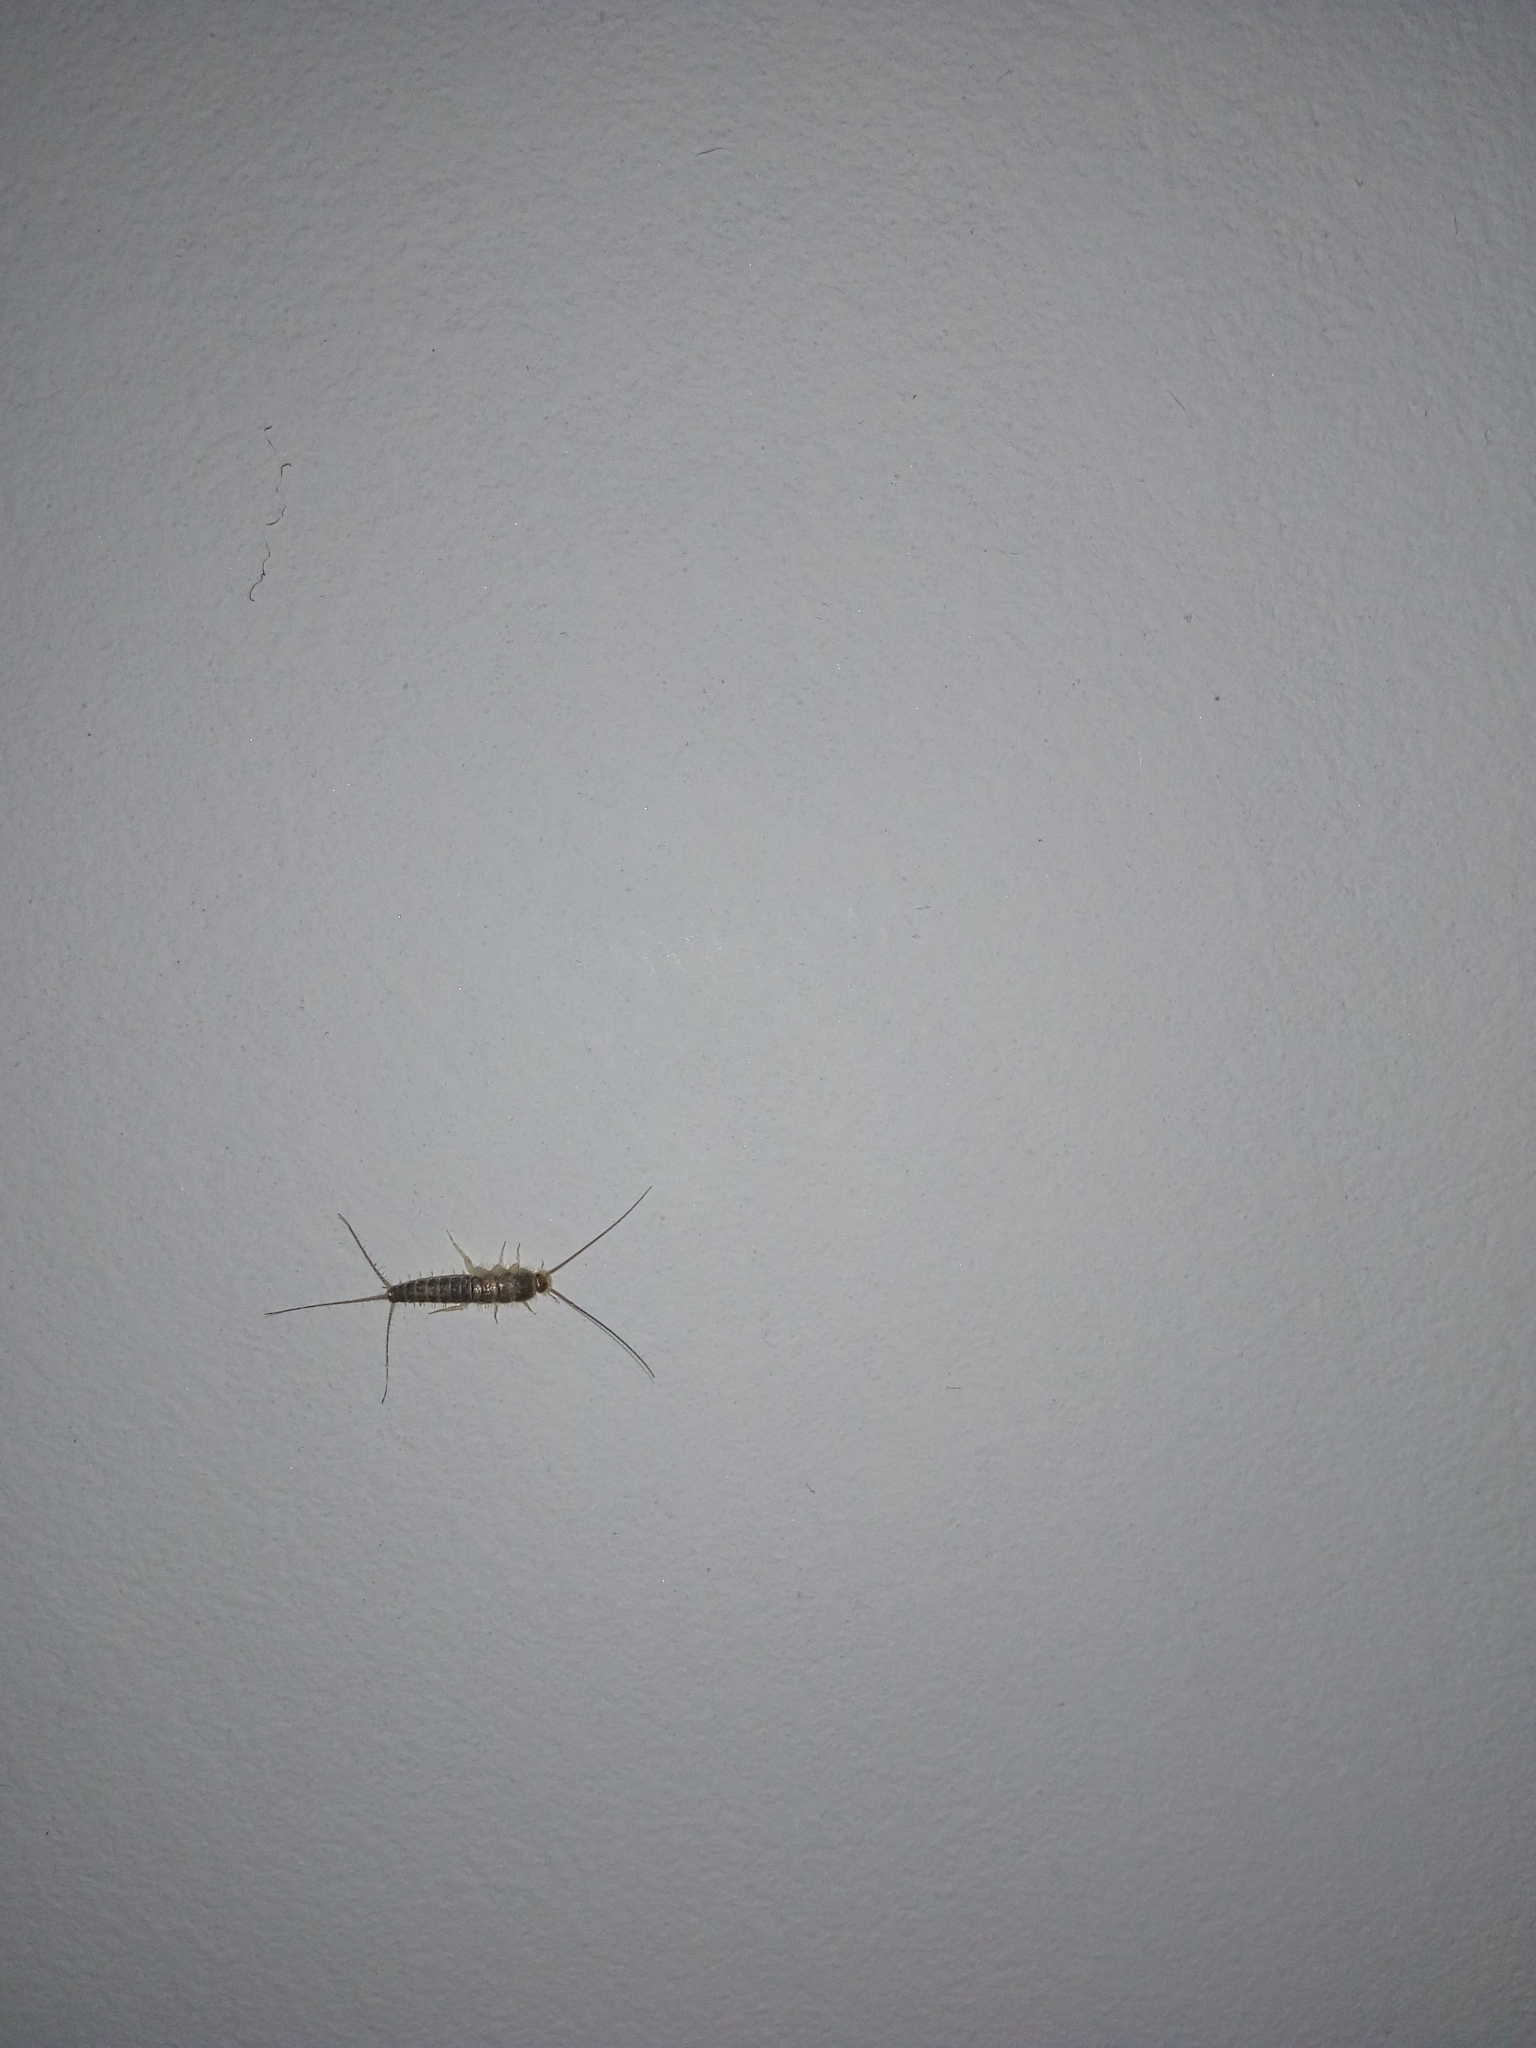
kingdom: Animalia
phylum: Arthropoda
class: Insecta
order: Zygentoma
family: Lepismatidae
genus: Ctenolepisma
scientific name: Ctenolepisma longicaudatum
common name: Silverfish
